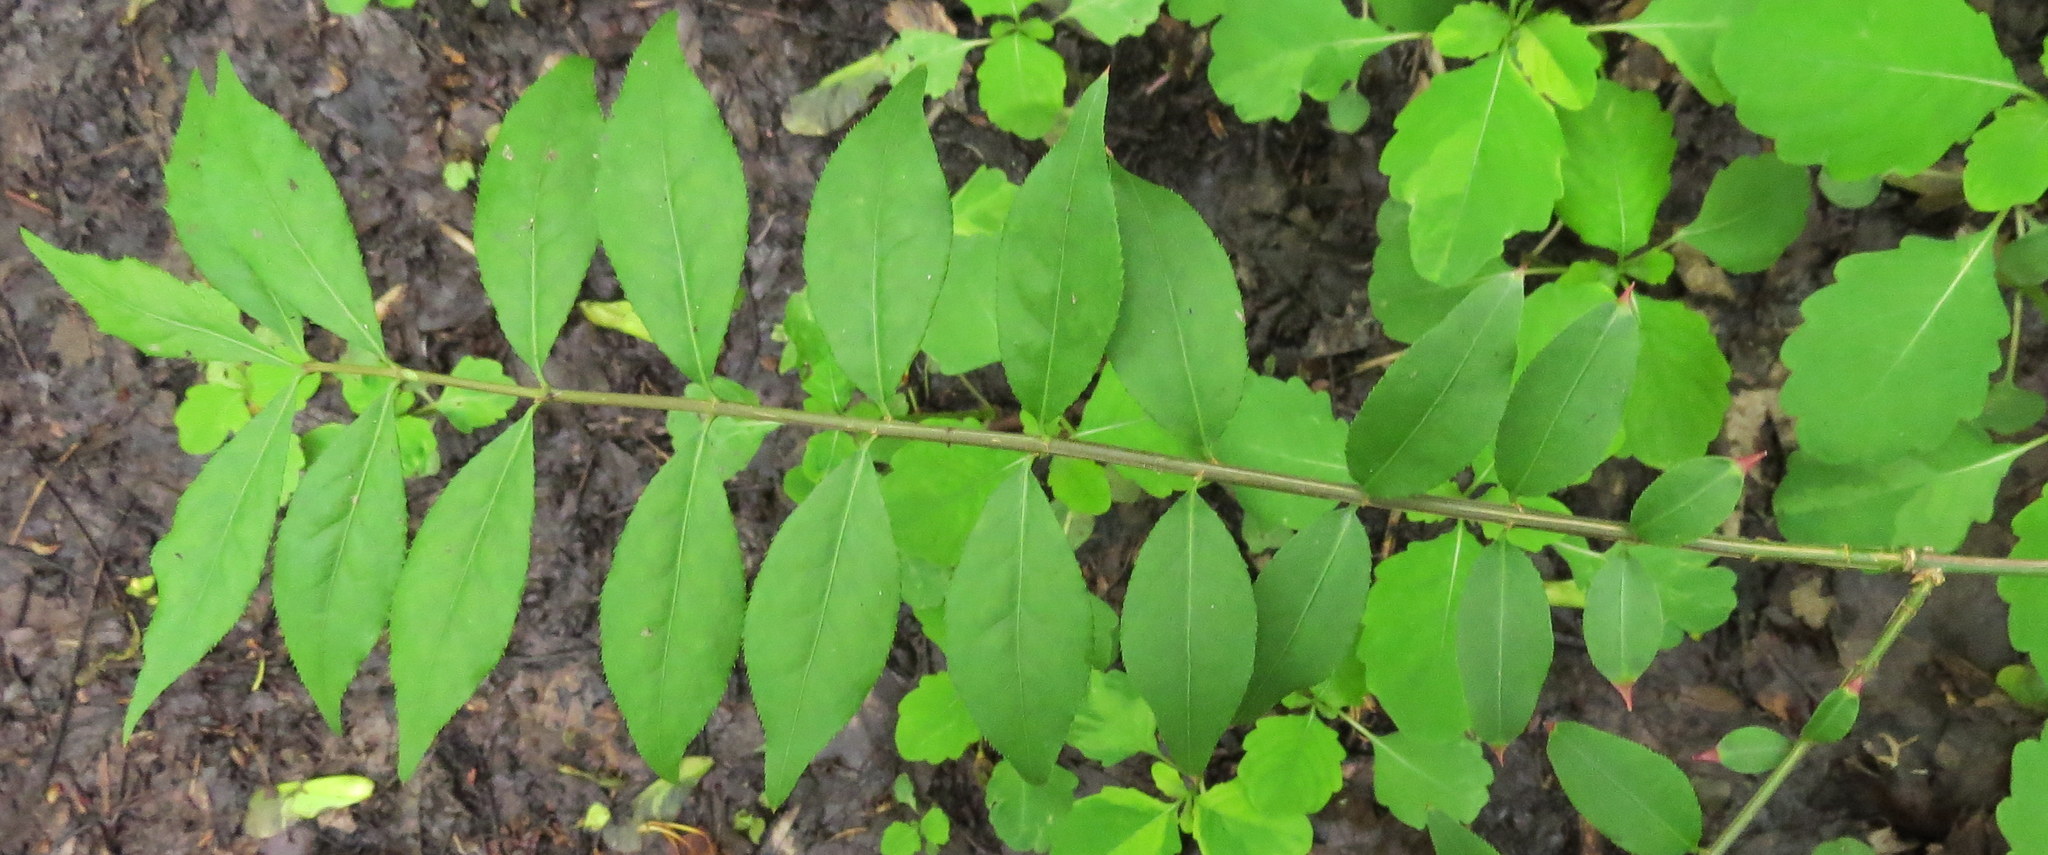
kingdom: Plantae
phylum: Tracheophyta
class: Magnoliopsida
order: Celastrales
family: Celastraceae
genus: Euonymus
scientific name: Euonymus alatus
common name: Winged euonymus
